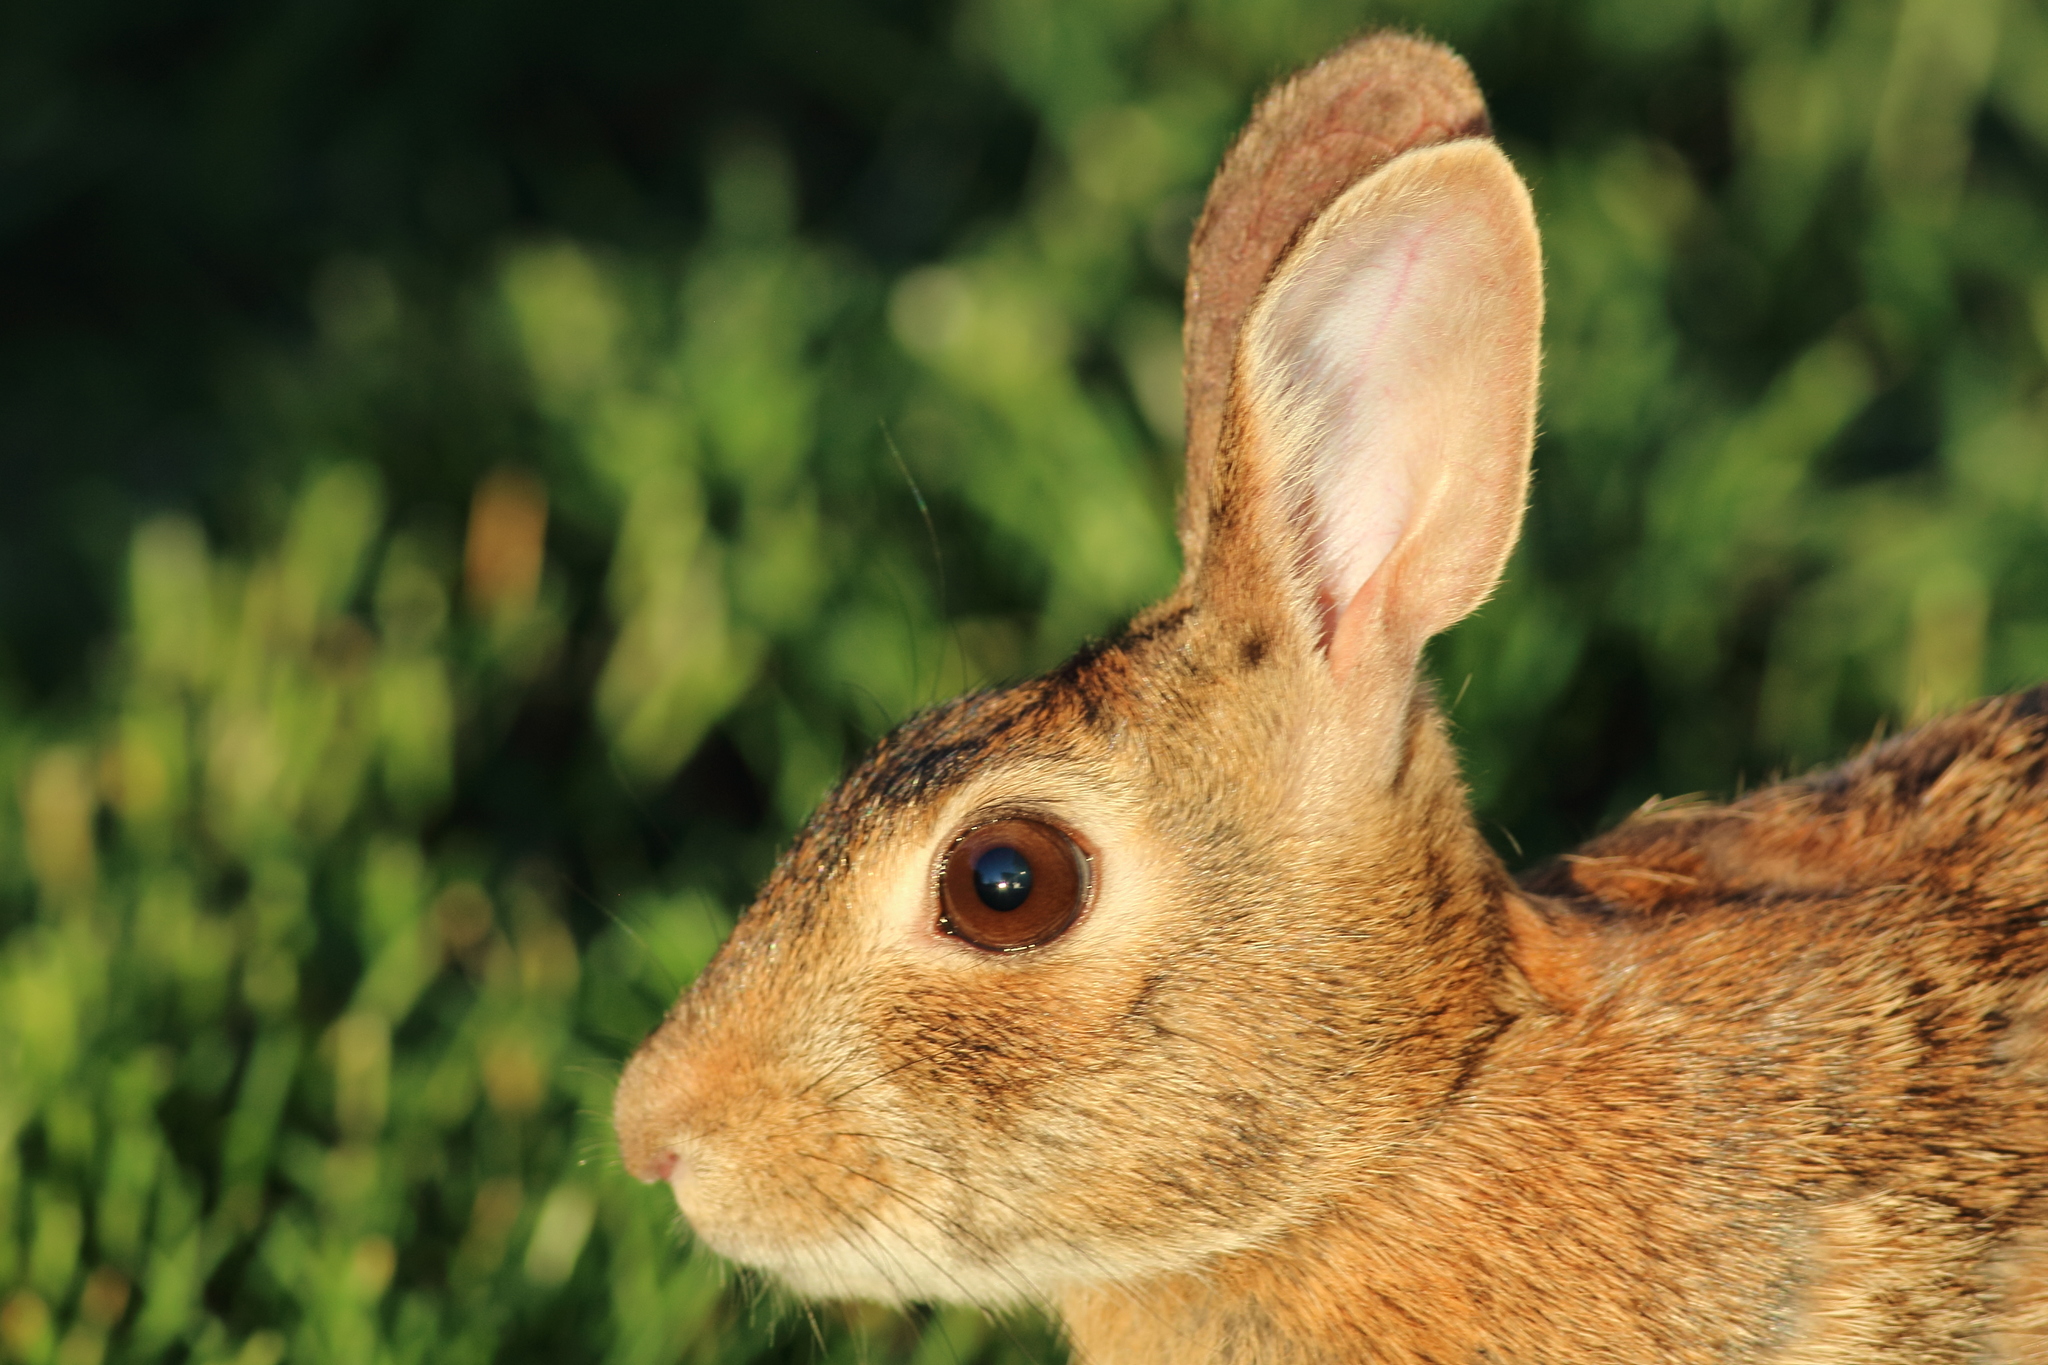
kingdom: Animalia
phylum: Chordata
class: Mammalia
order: Lagomorpha
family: Leporidae
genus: Sylvilagus
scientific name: Sylvilagus floridanus
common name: Eastern cottontail
